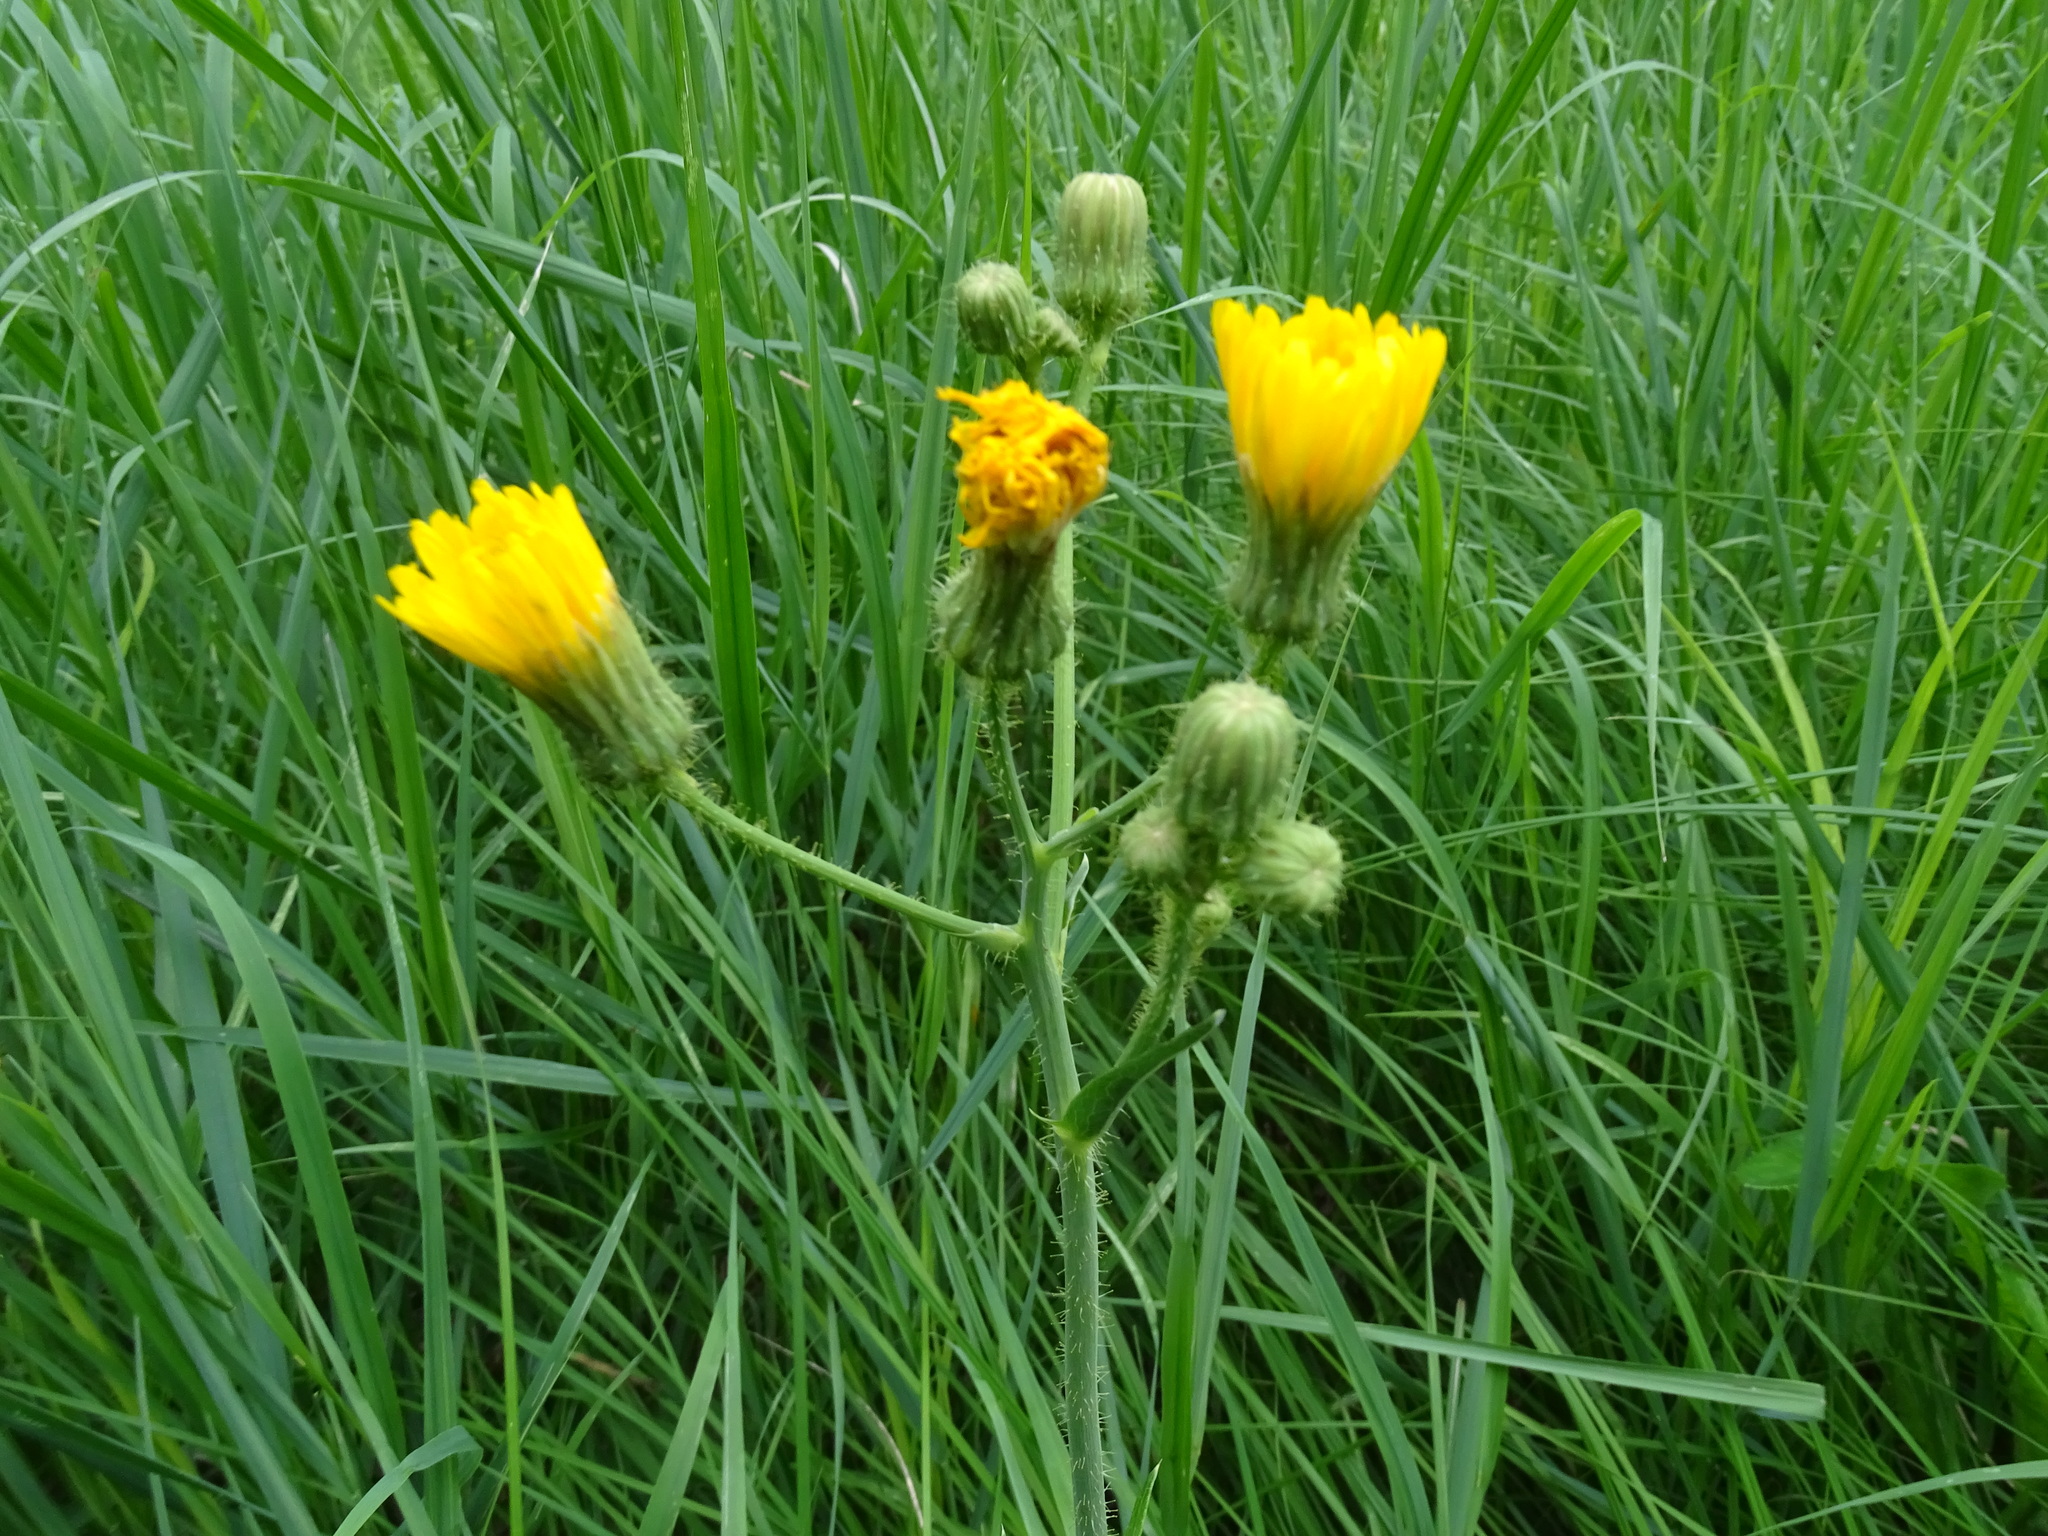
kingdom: Plantae
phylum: Tracheophyta
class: Magnoliopsida
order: Asterales
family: Asteraceae
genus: Sonchus
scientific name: Sonchus arvensis
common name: Perennial sow-thistle
